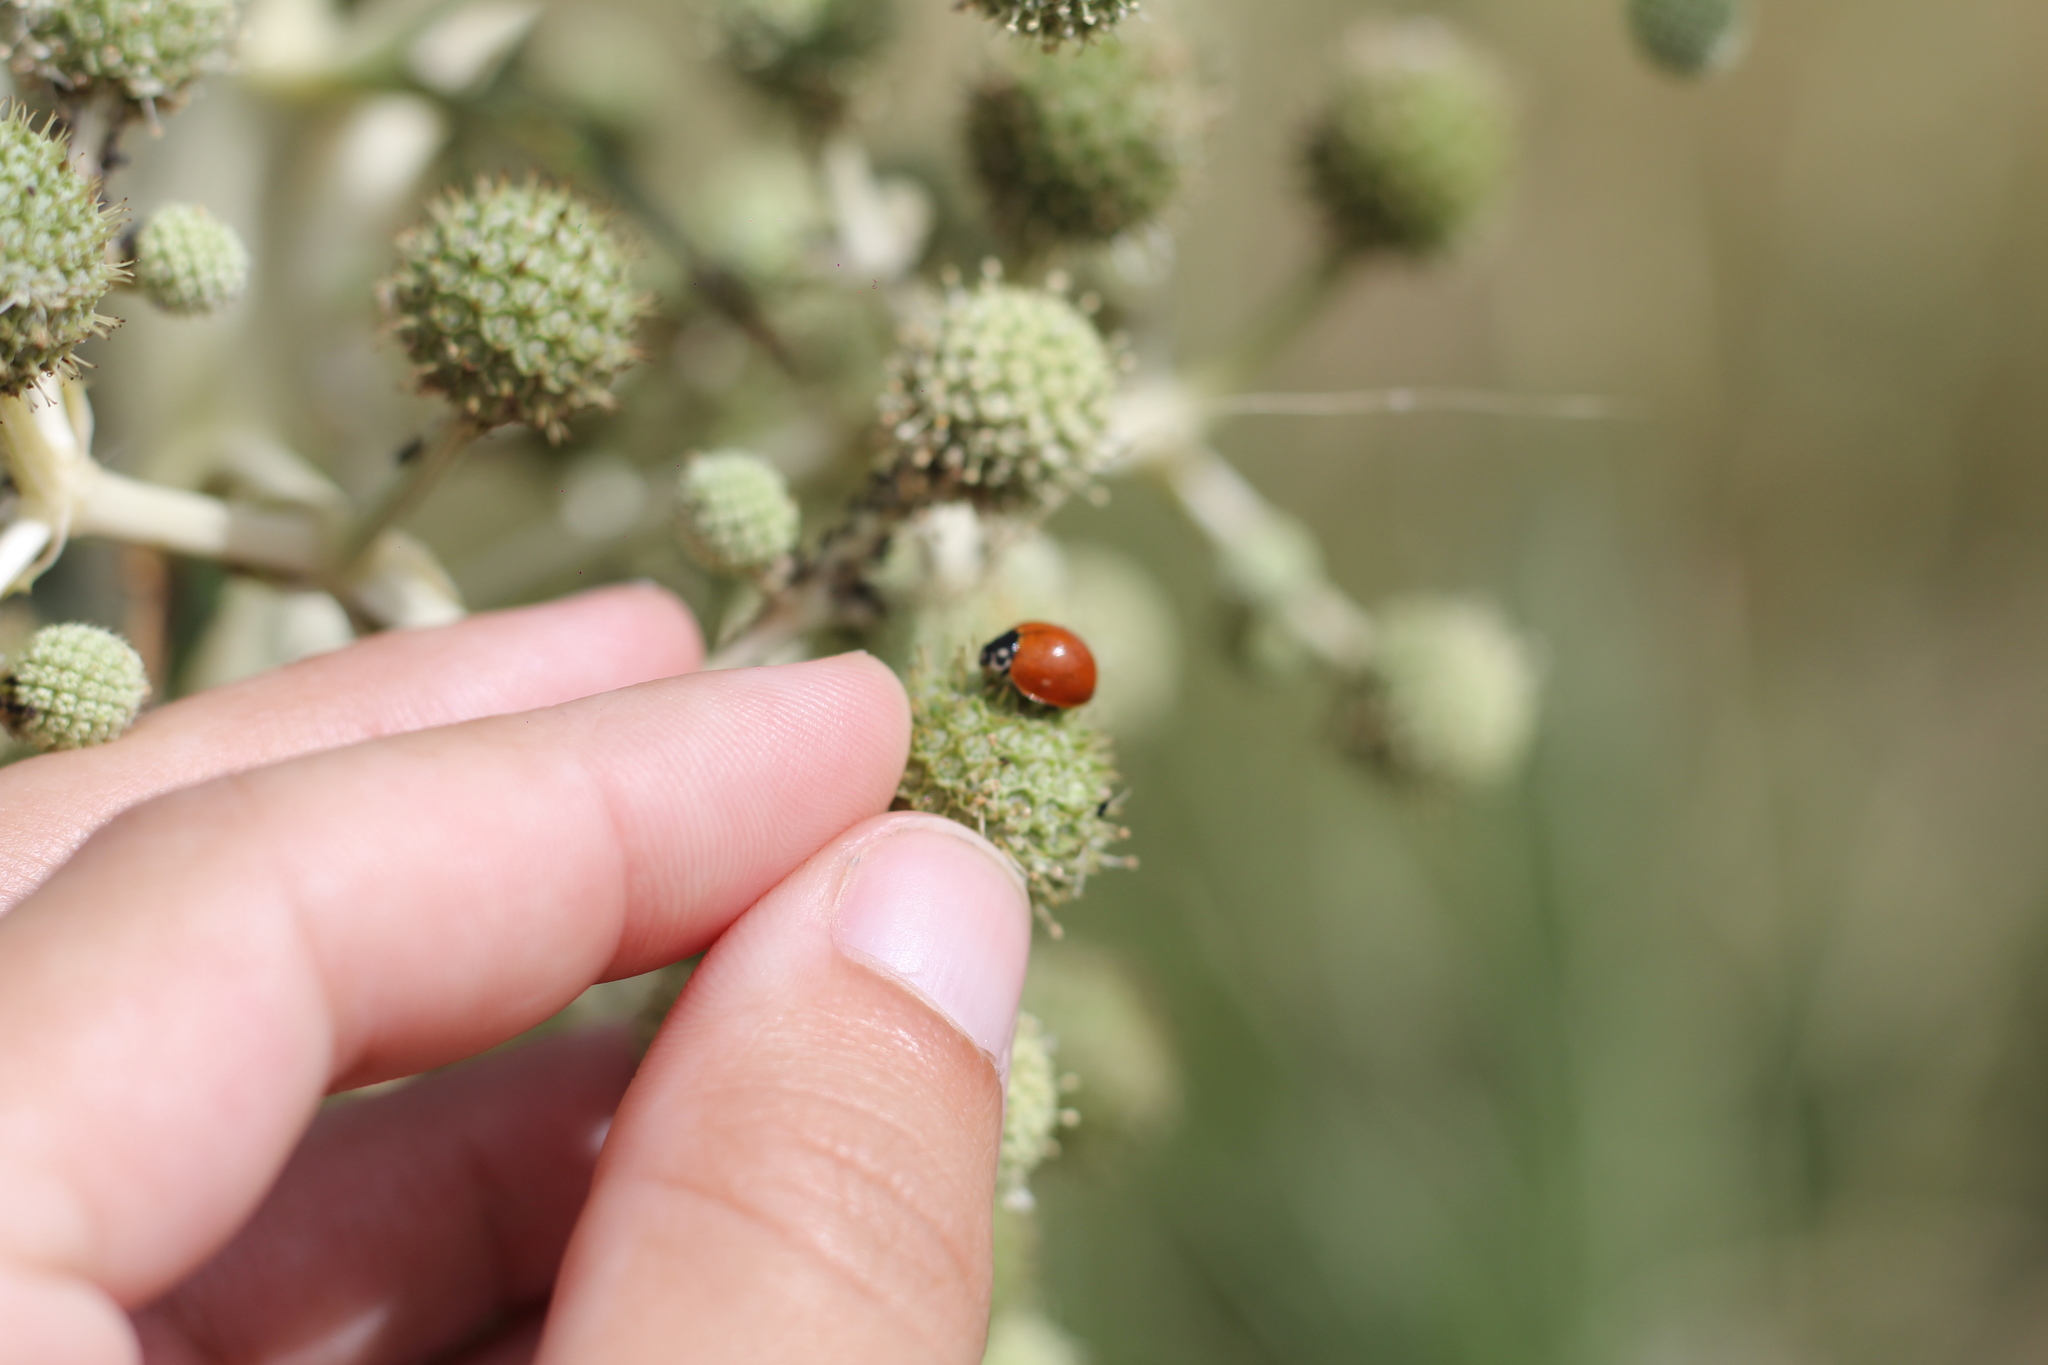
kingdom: Animalia
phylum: Arthropoda
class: Insecta
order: Coleoptera
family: Coccinellidae
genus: Cycloneda
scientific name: Cycloneda sanguinea
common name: Ladybird beetle
